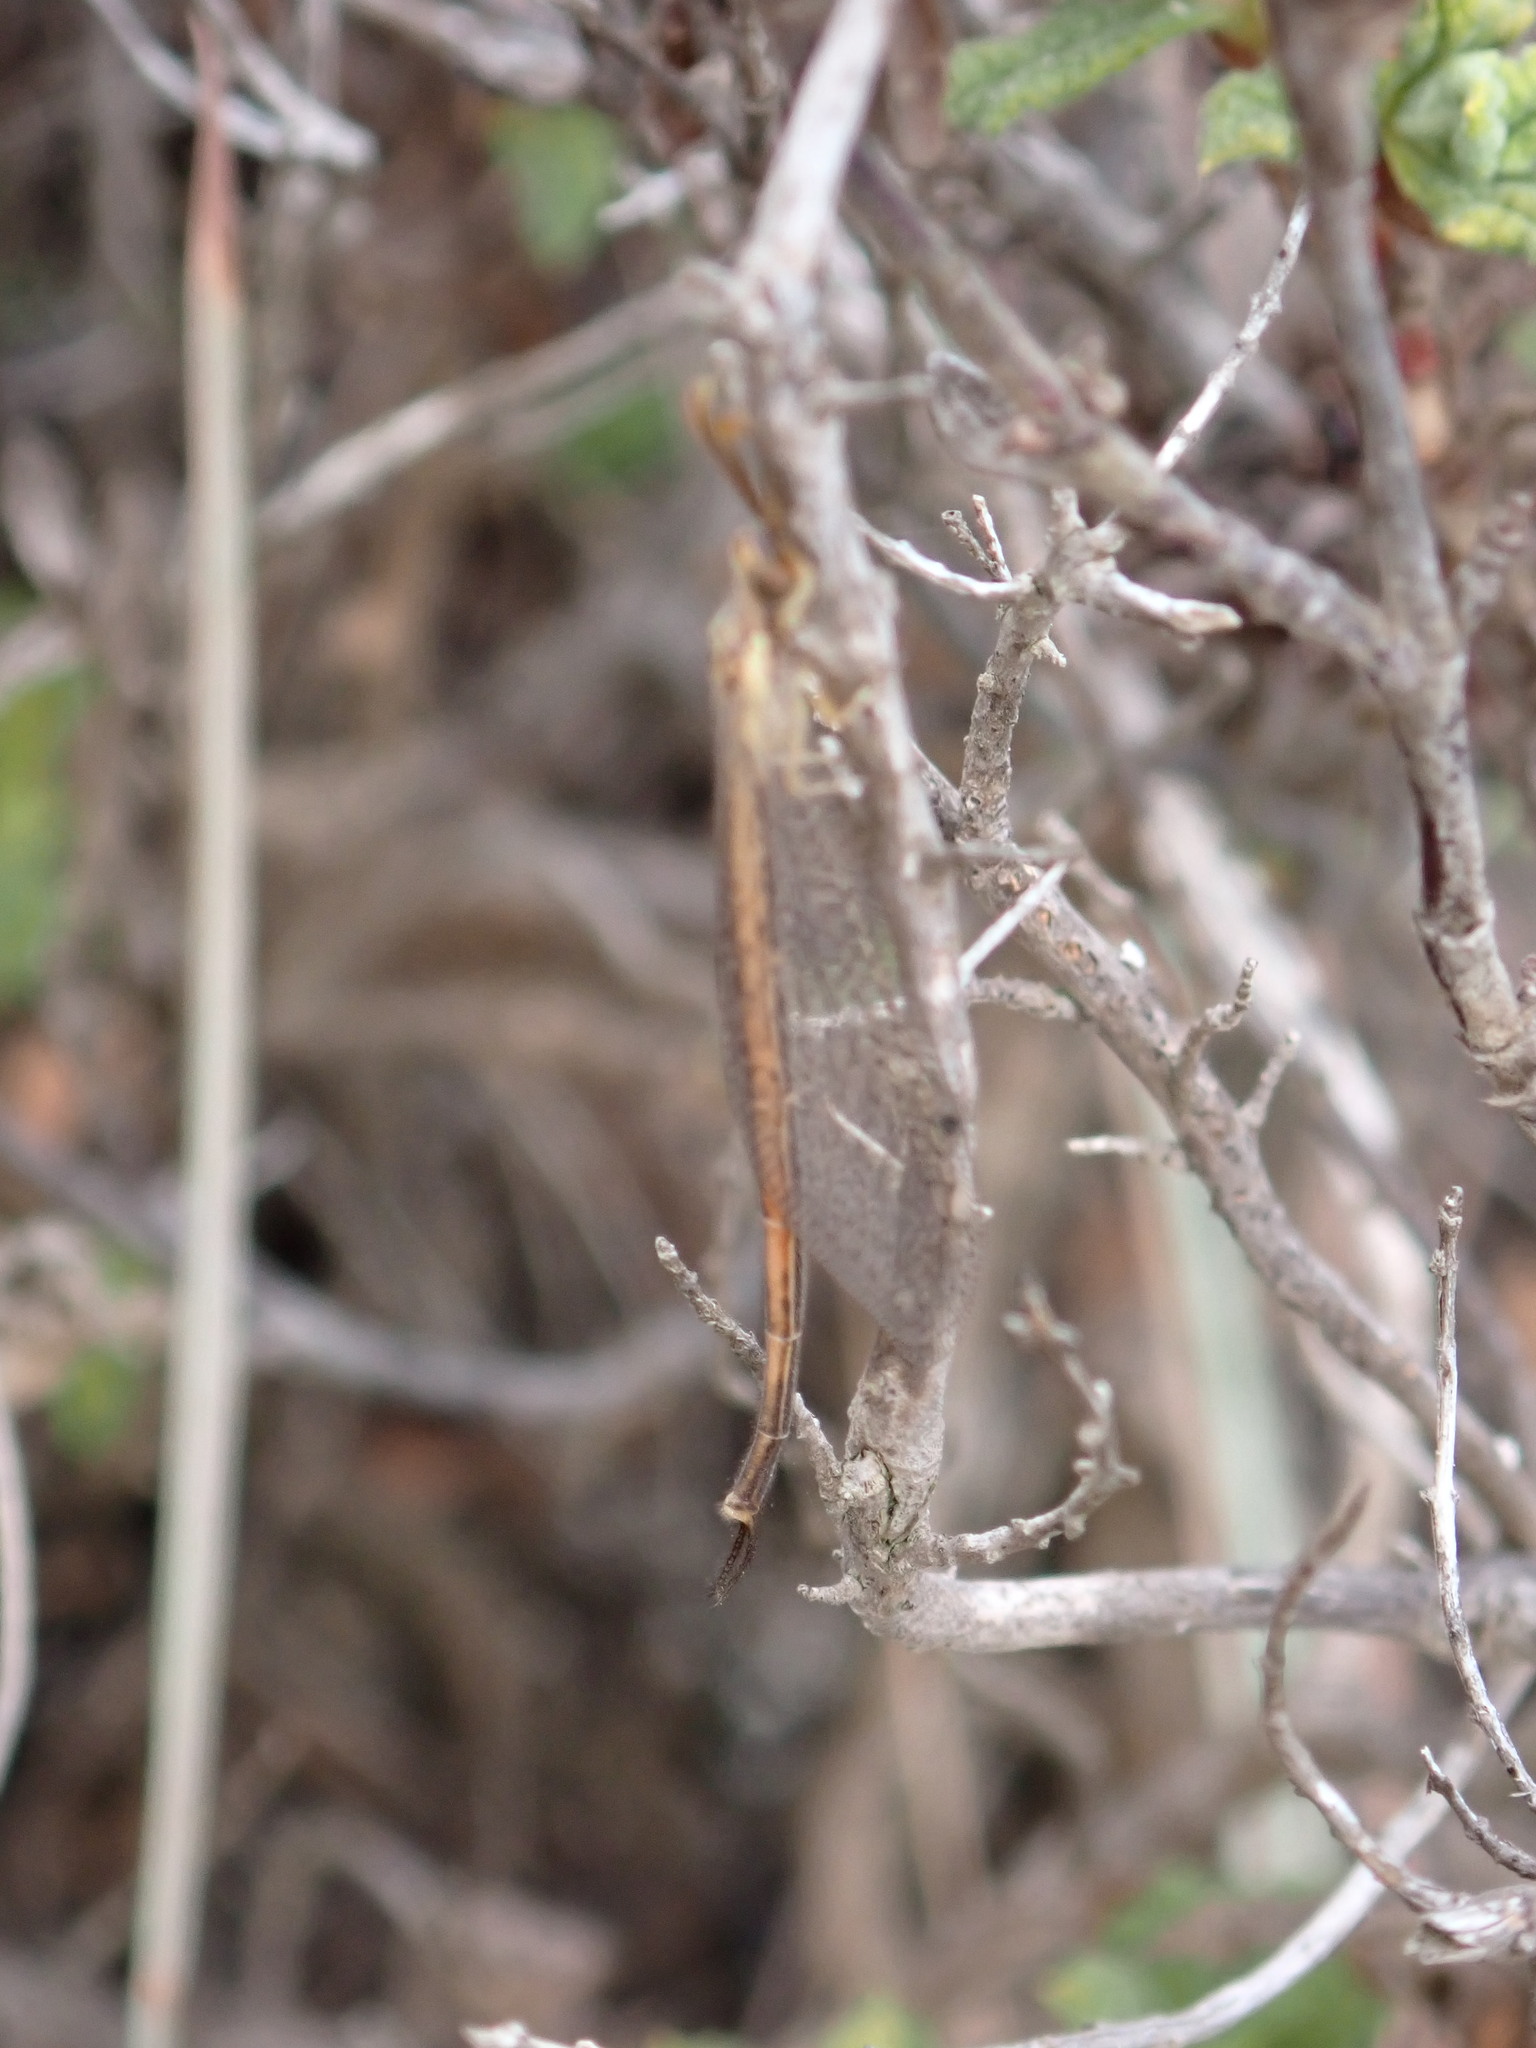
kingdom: Animalia
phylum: Arthropoda
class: Insecta
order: Neuroptera
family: Myrmeleontidae
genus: Macronemurus
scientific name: Macronemurus appendiculatus
